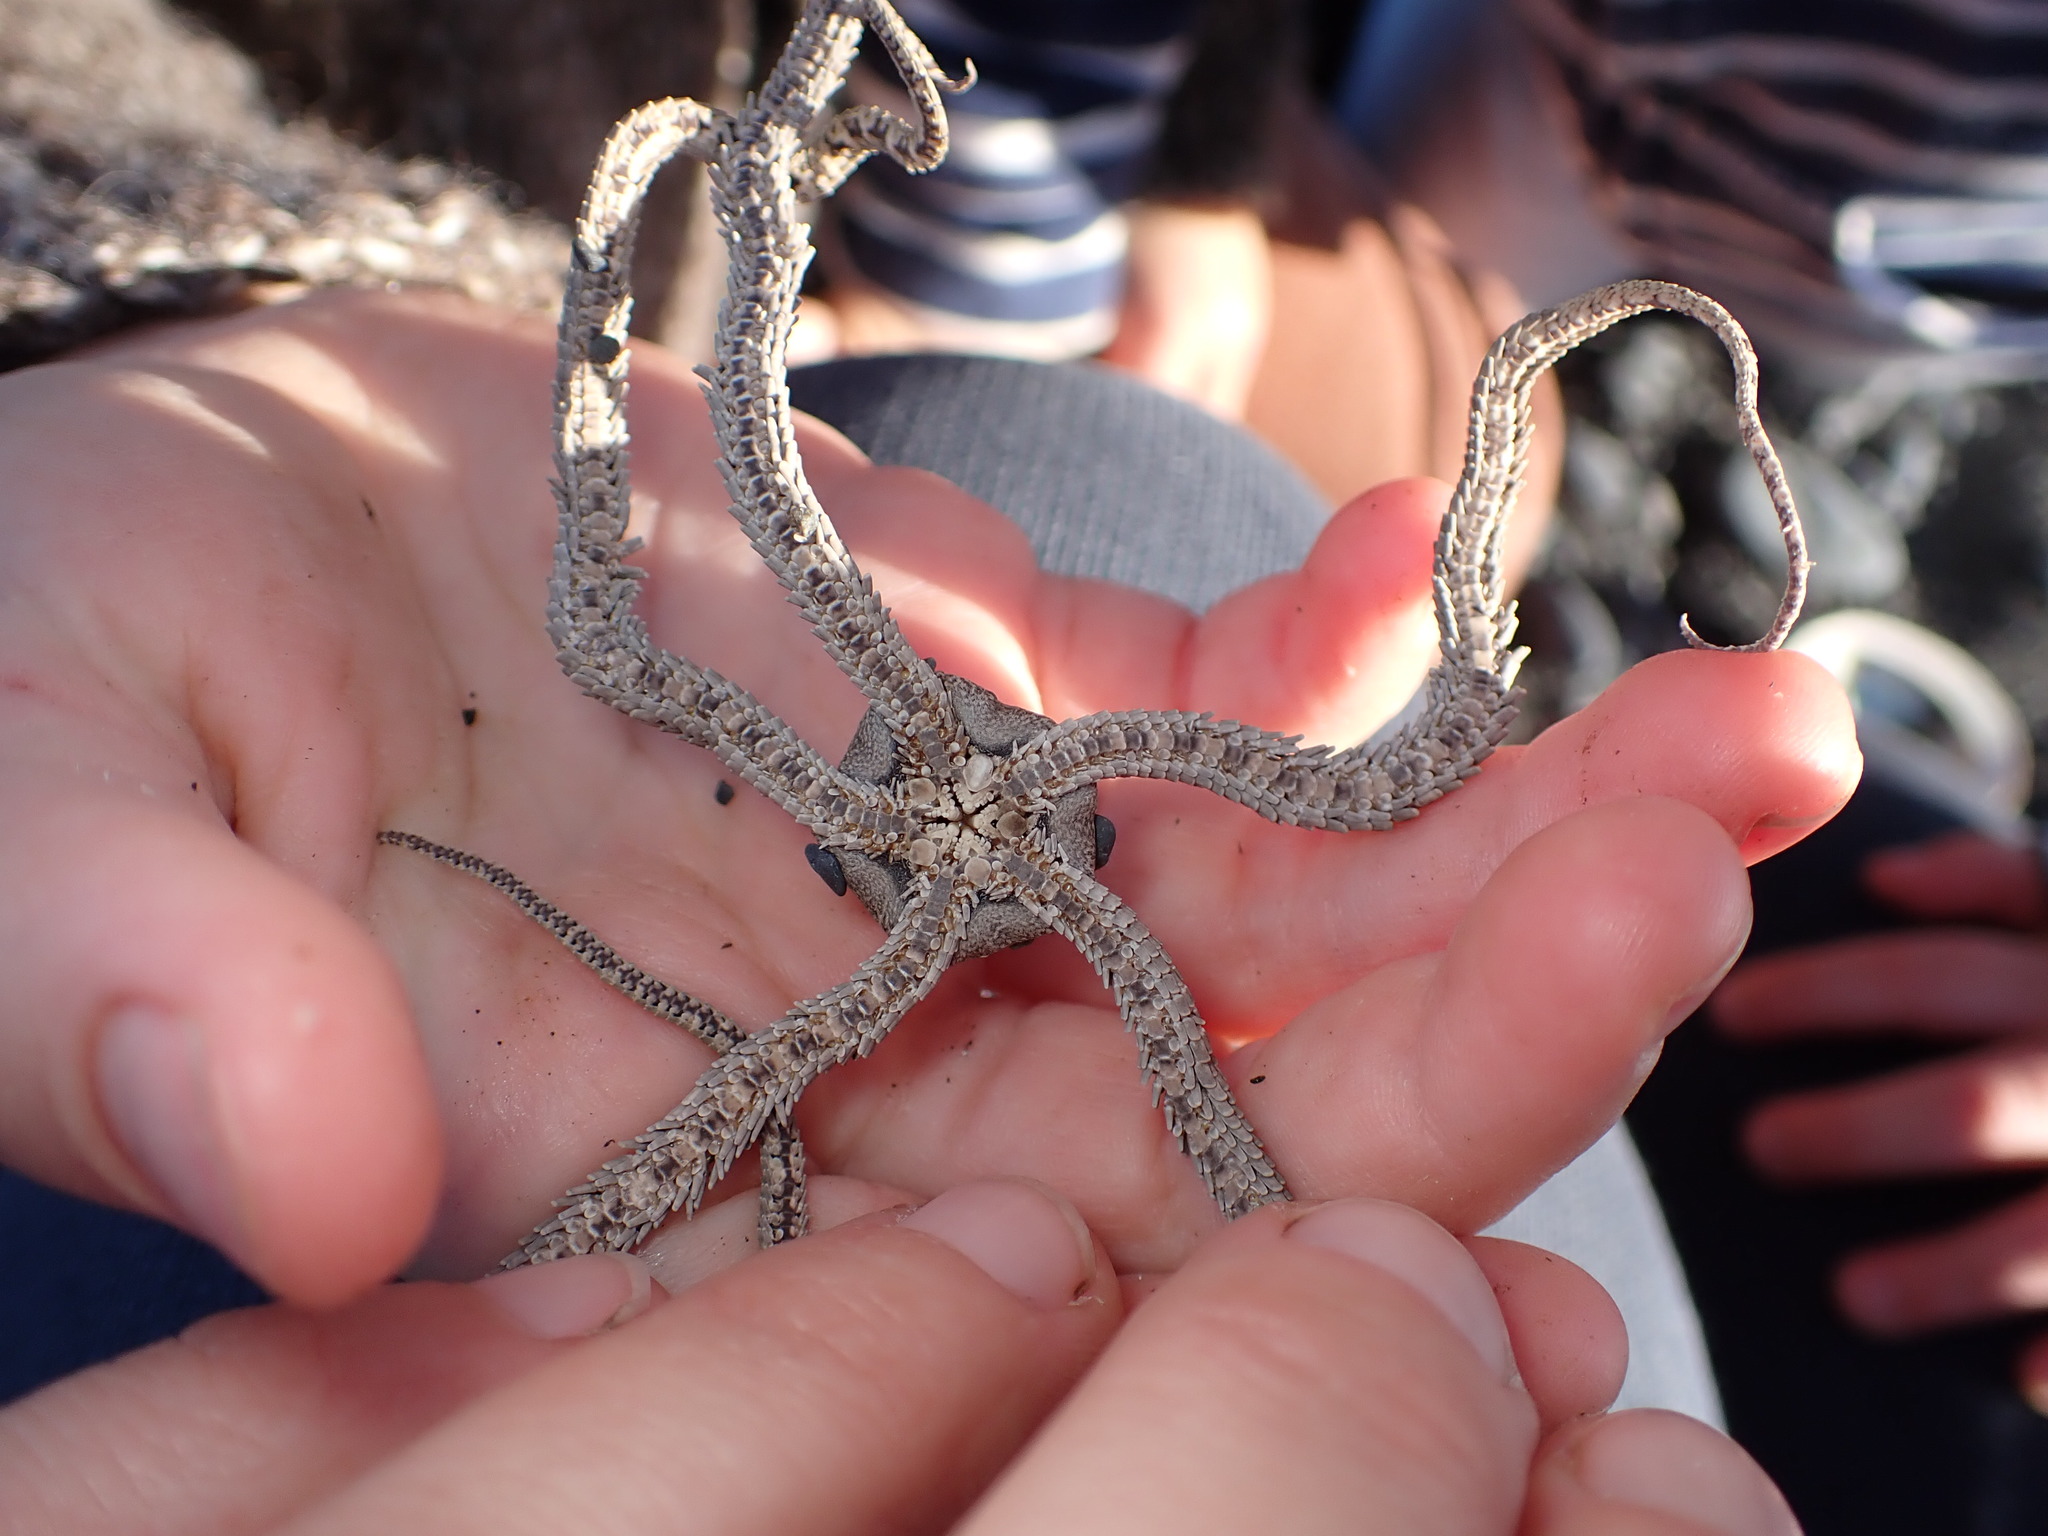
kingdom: Animalia
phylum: Echinodermata
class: Ophiuroidea
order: Amphilepidida
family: Ophionereididae
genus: Ophionereis
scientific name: Ophionereis fasciata
